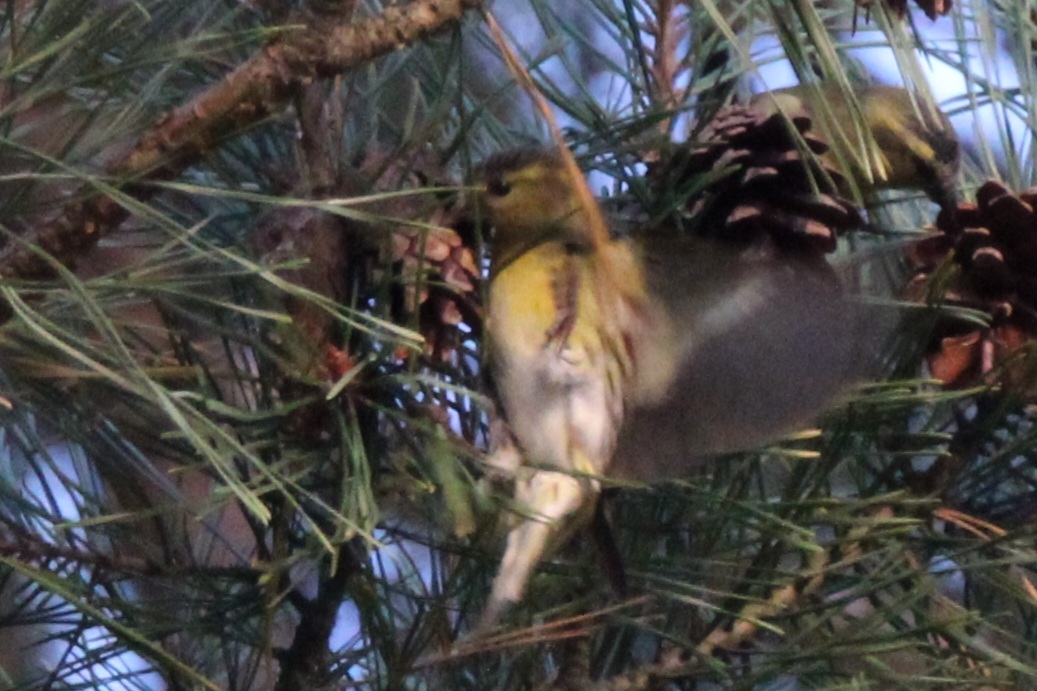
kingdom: Animalia
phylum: Chordata
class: Aves
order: Passeriformes
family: Fringillidae
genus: Spinus
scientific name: Spinus spinus
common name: Eurasian siskin
